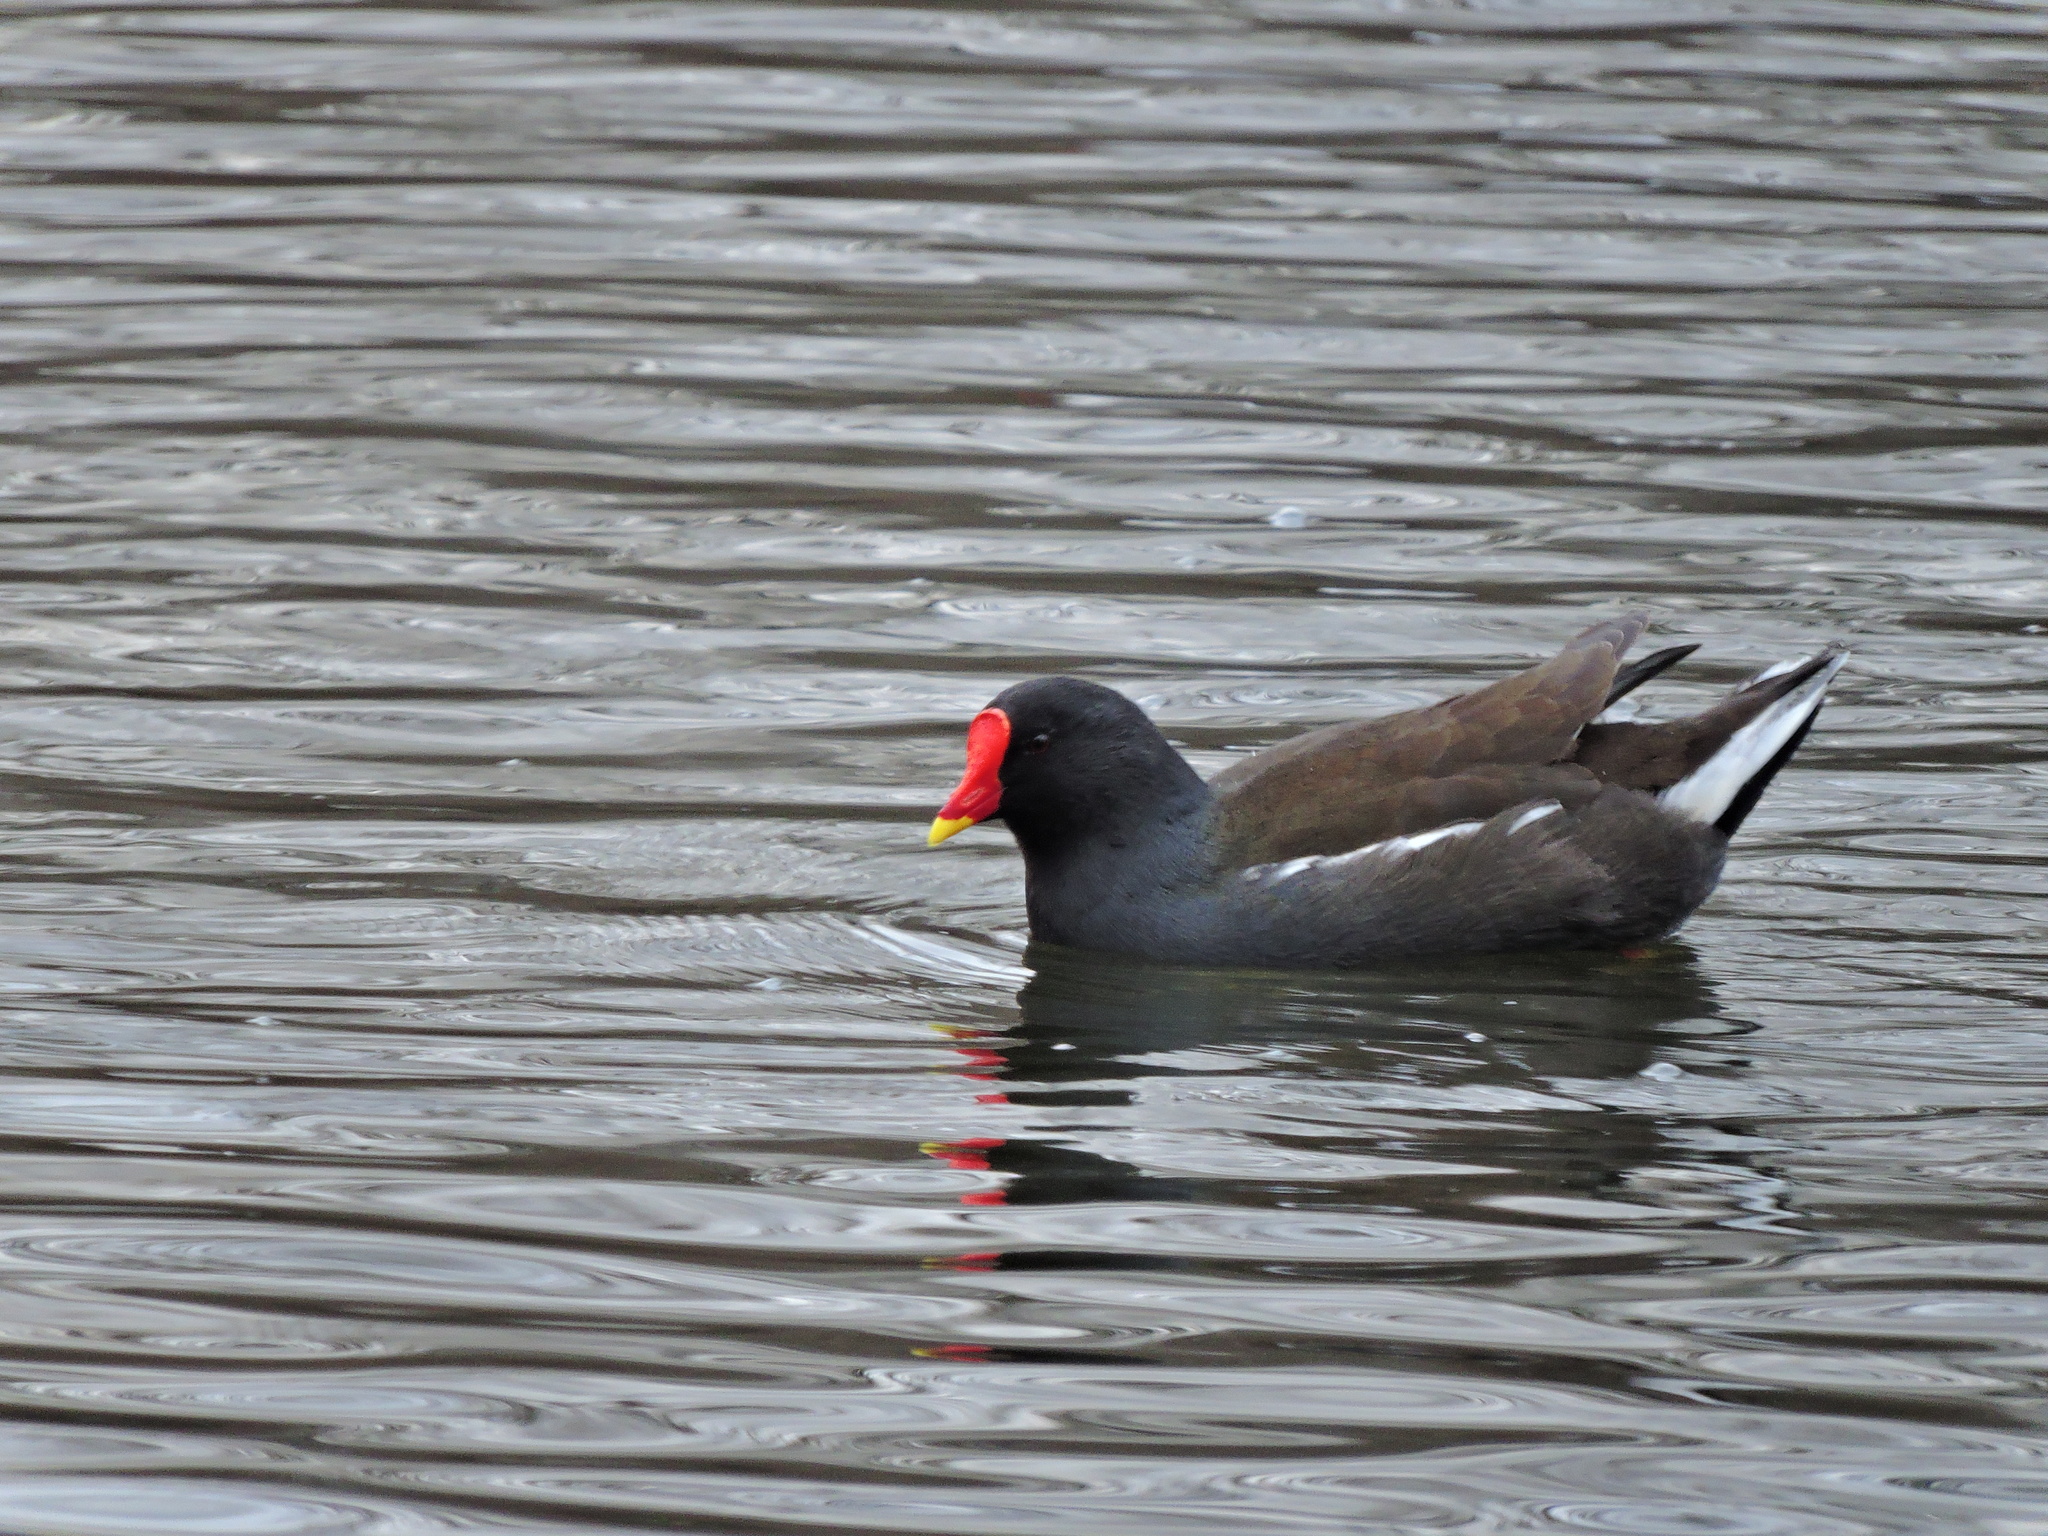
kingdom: Animalia
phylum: Chordata
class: Aves
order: Gruiformes
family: Rallidae
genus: Gallinula
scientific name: Gallinula chloropus
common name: Common moorhen
